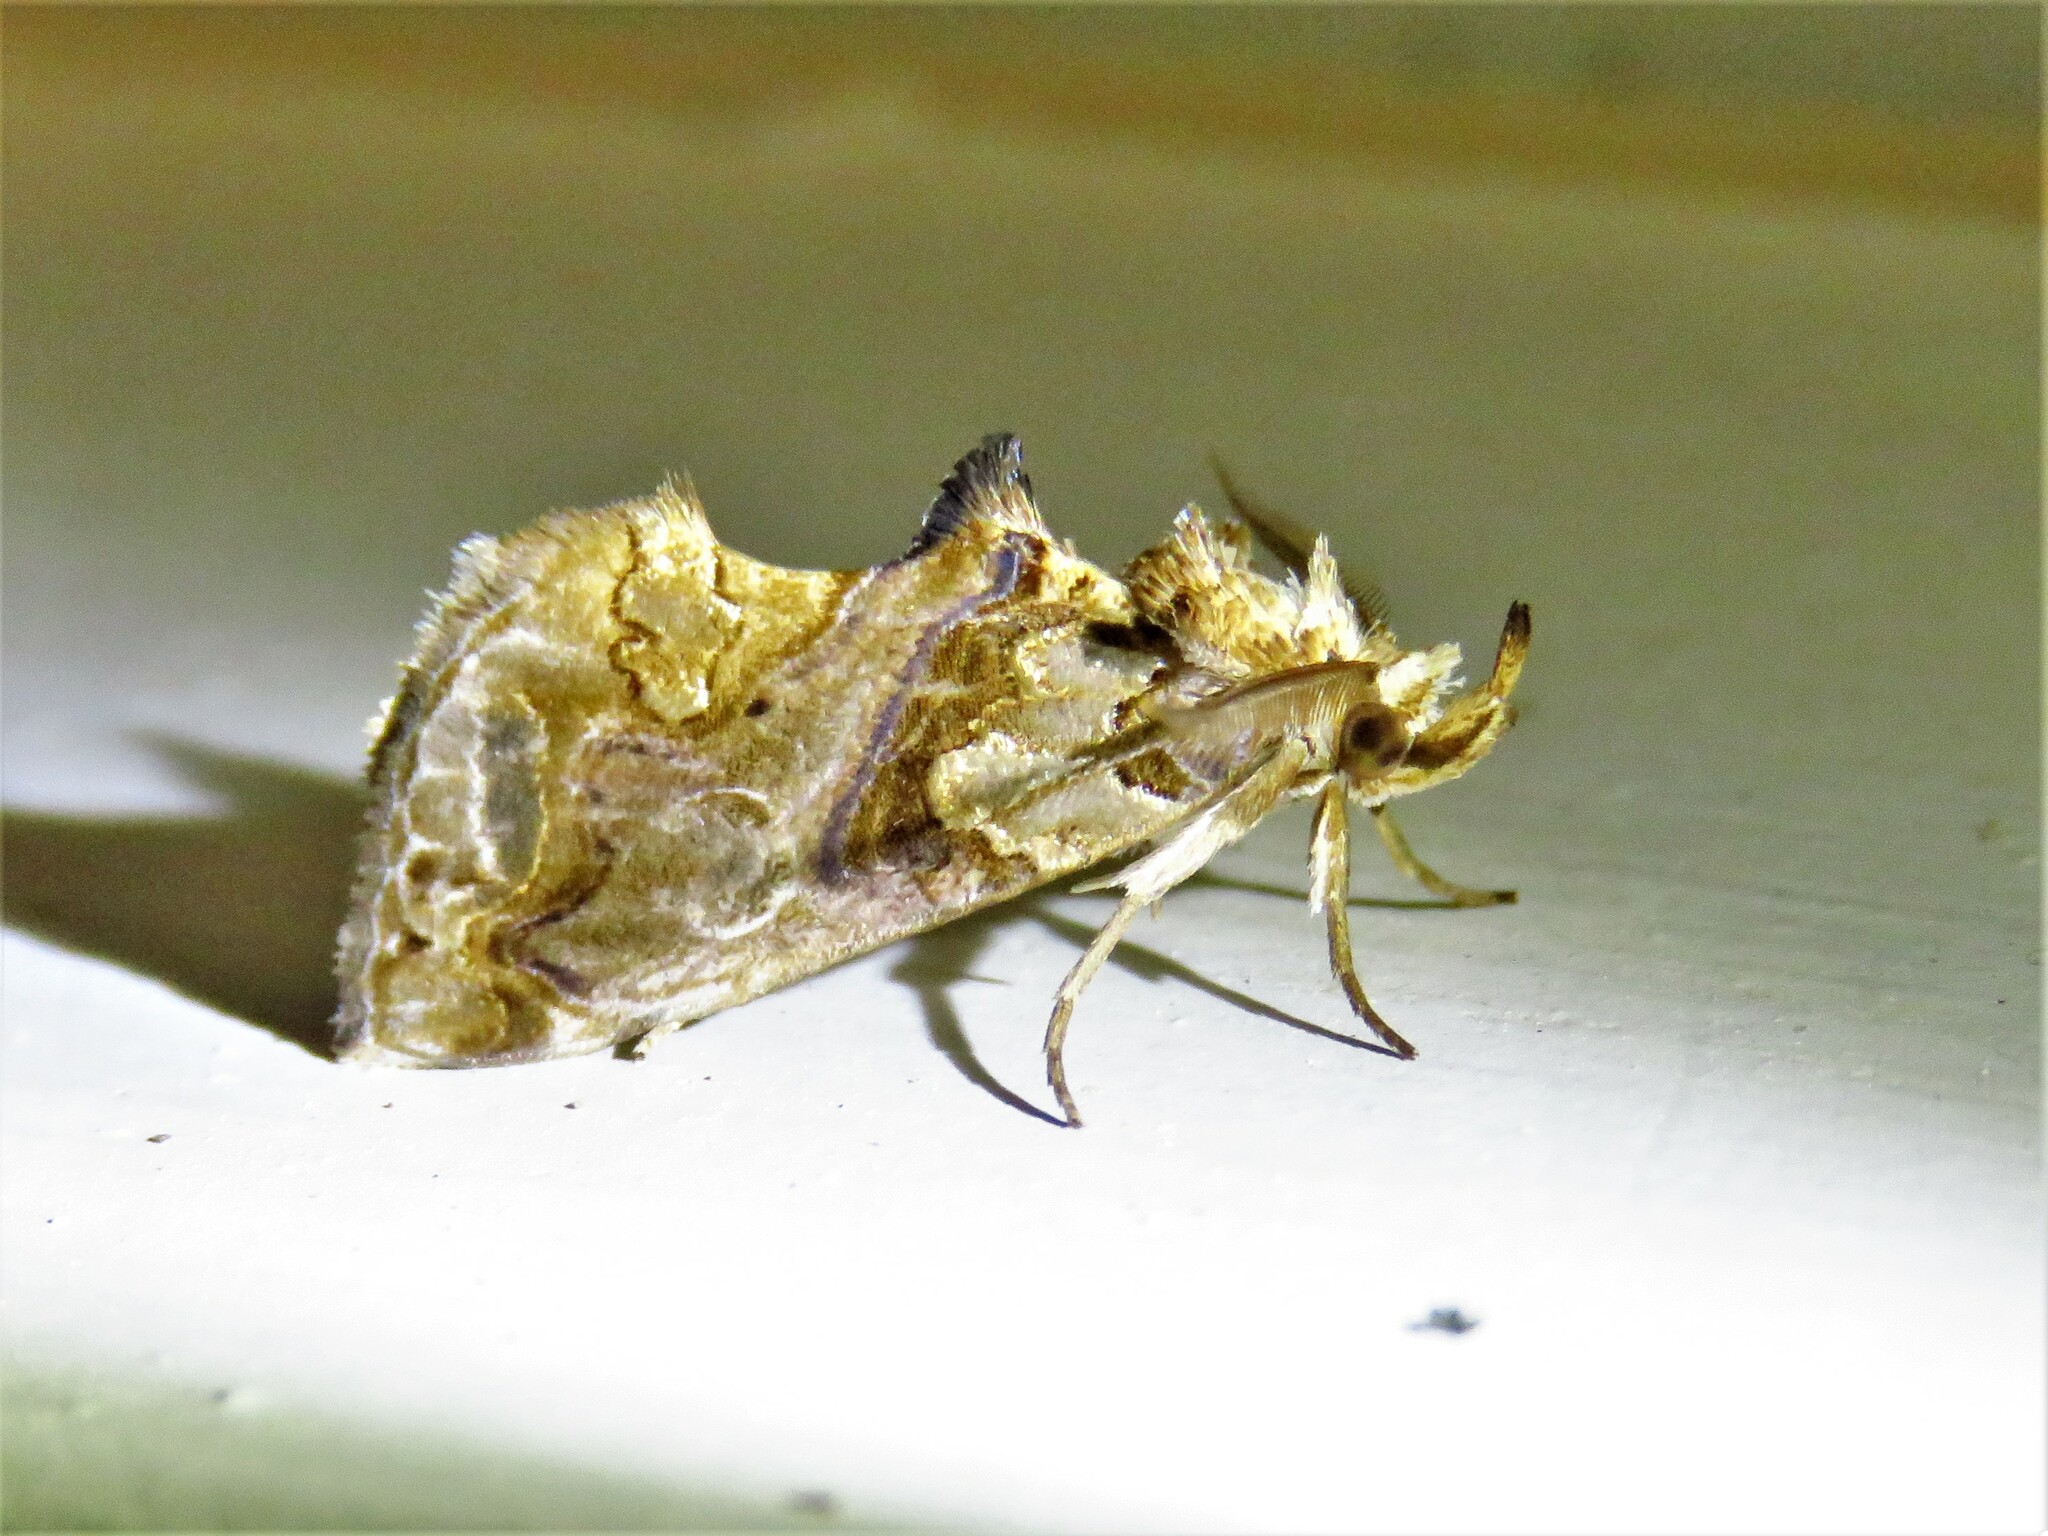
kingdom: Animalia
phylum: Arthropoda
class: Insecta
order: Lepidoptera
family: Erebidae
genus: Plusiodonta
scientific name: Plusiodonta compressipalpis
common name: Moonseed moth
